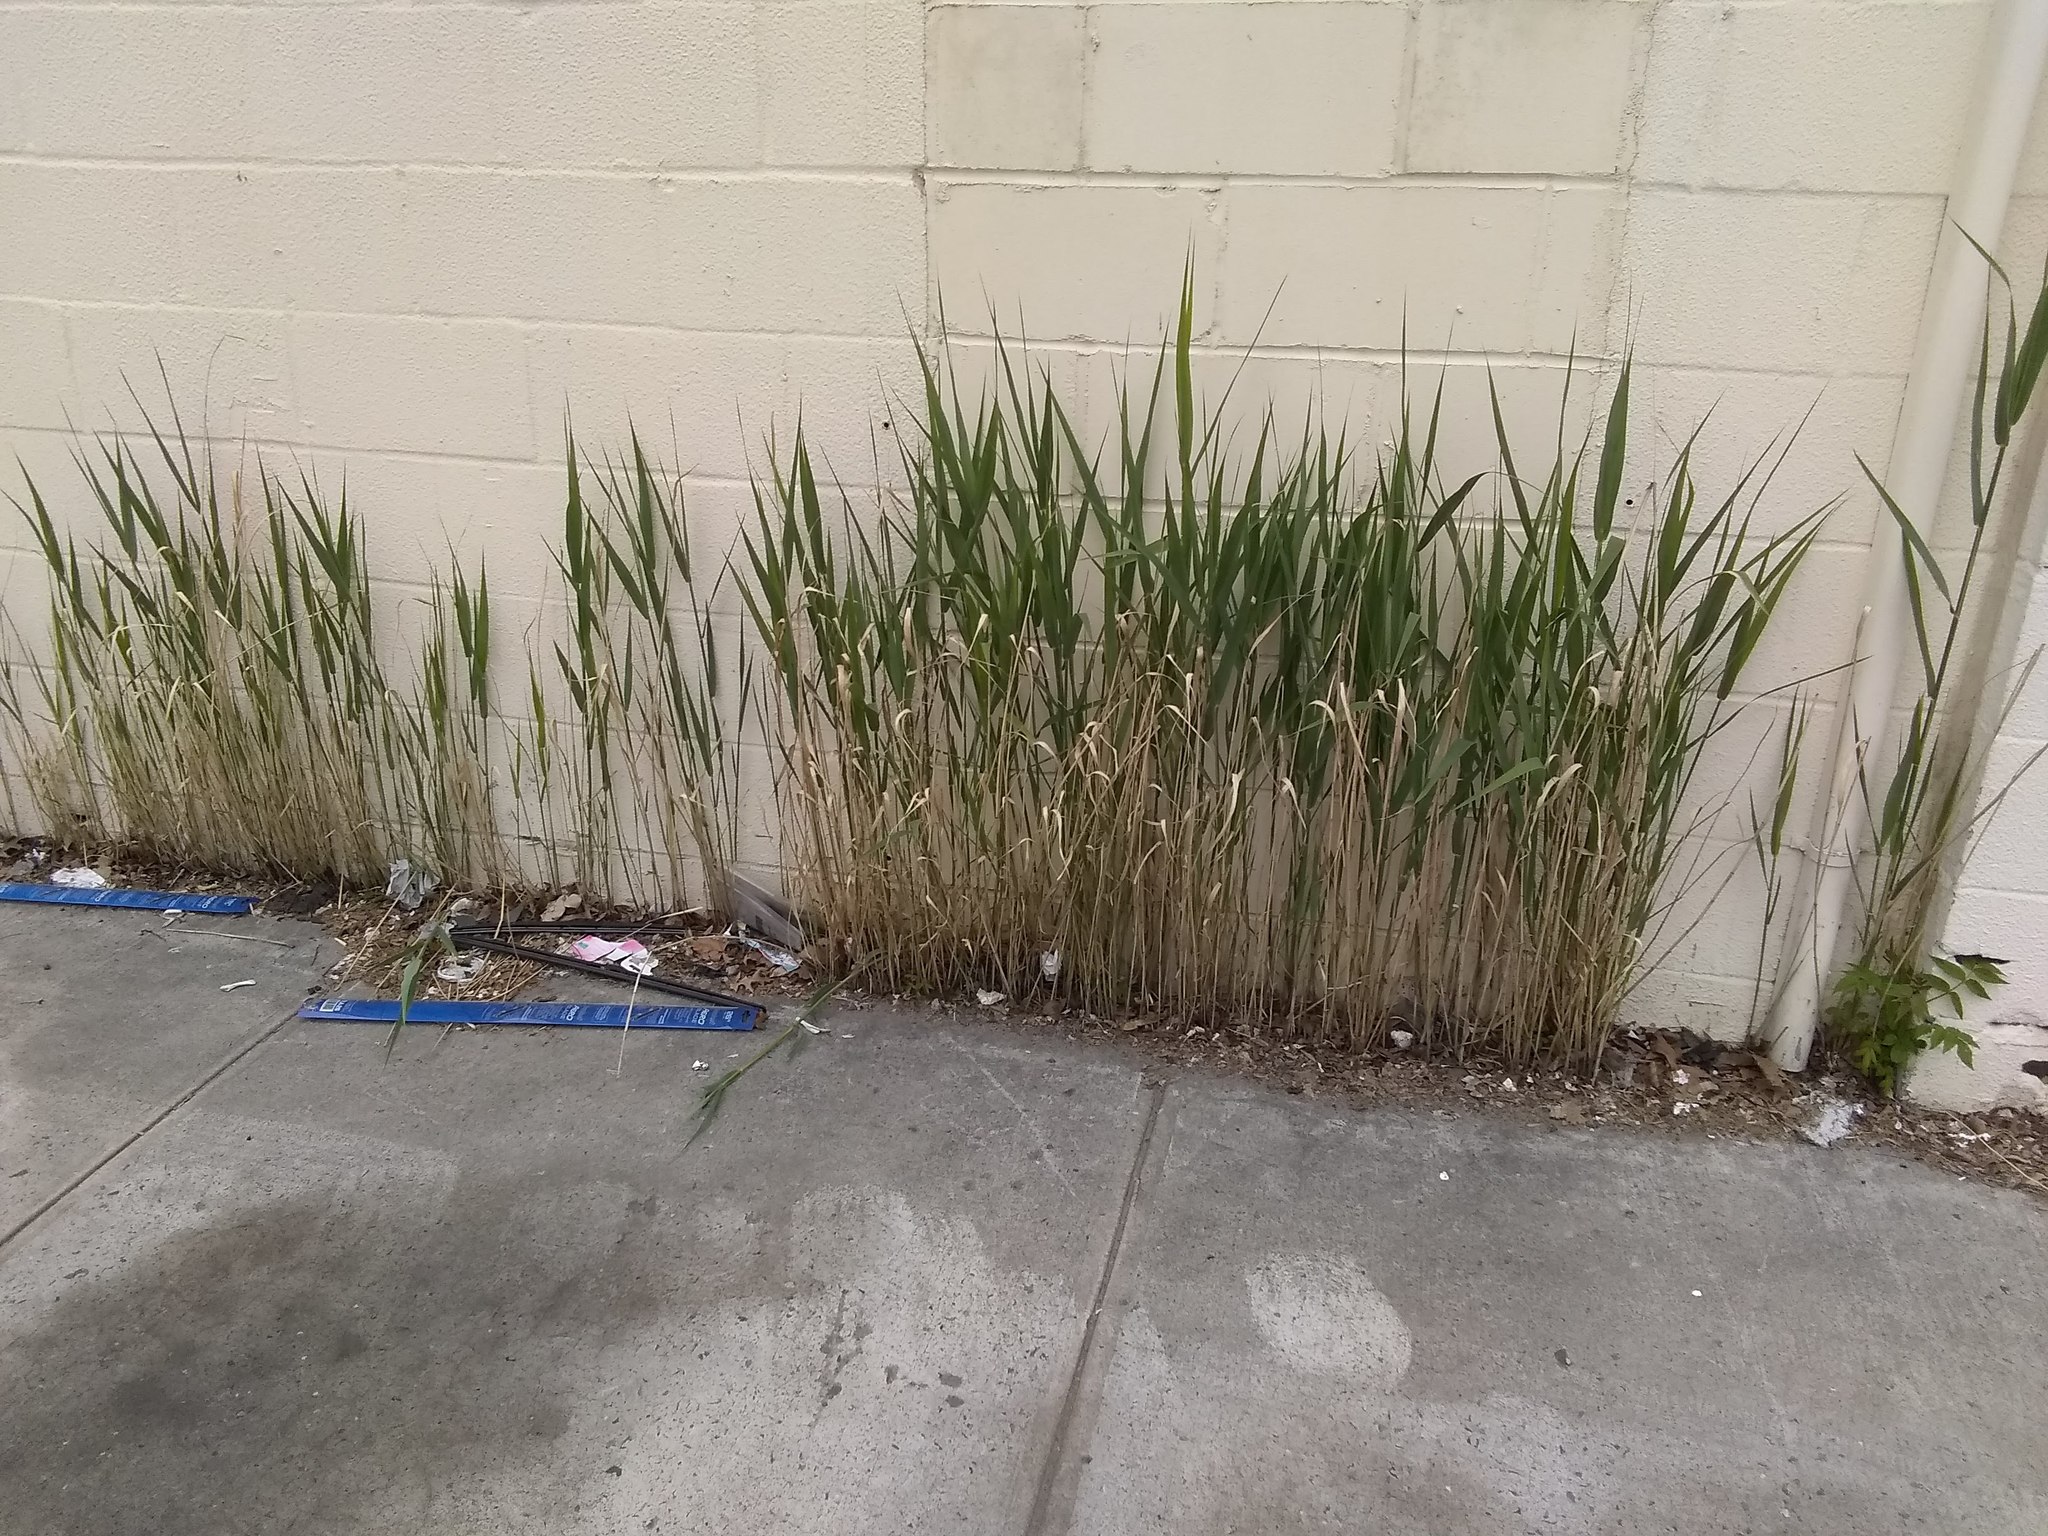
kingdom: Plantae
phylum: Tracheophyta
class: Liliopsida
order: Poales
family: Poaceae
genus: Phragmites
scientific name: Phragmites australis
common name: Common reed
